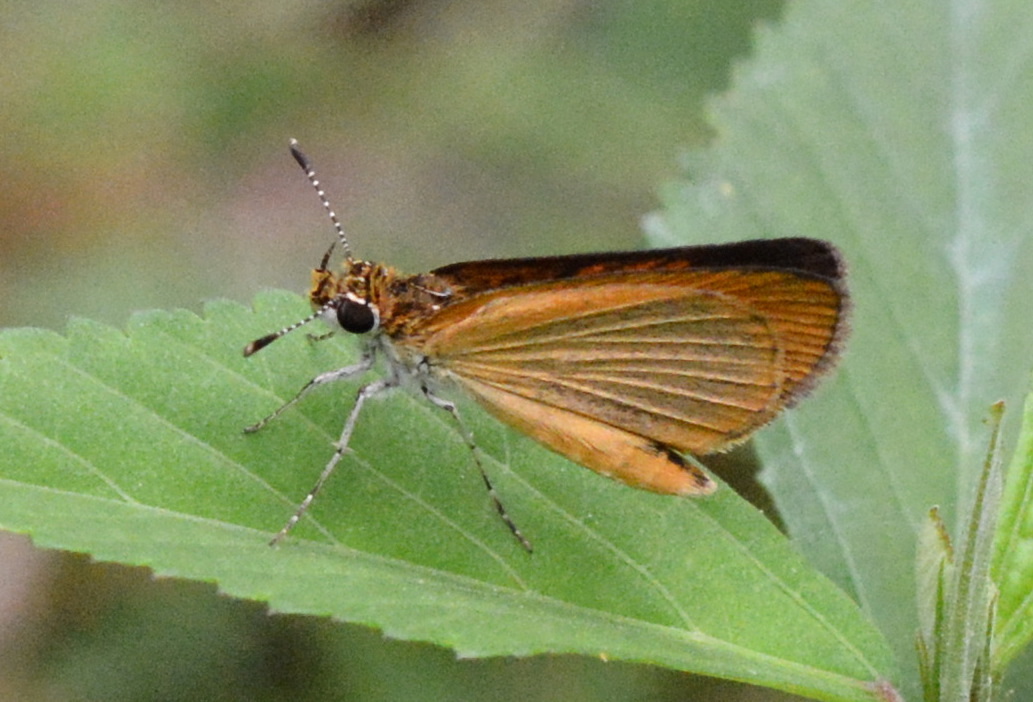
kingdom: Animalia
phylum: Arthropoda
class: Insecta
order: Lepidoptera
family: Hesperiidae
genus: Ancyloxypha
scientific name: Ancyloxypha numitor
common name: Least skipper
